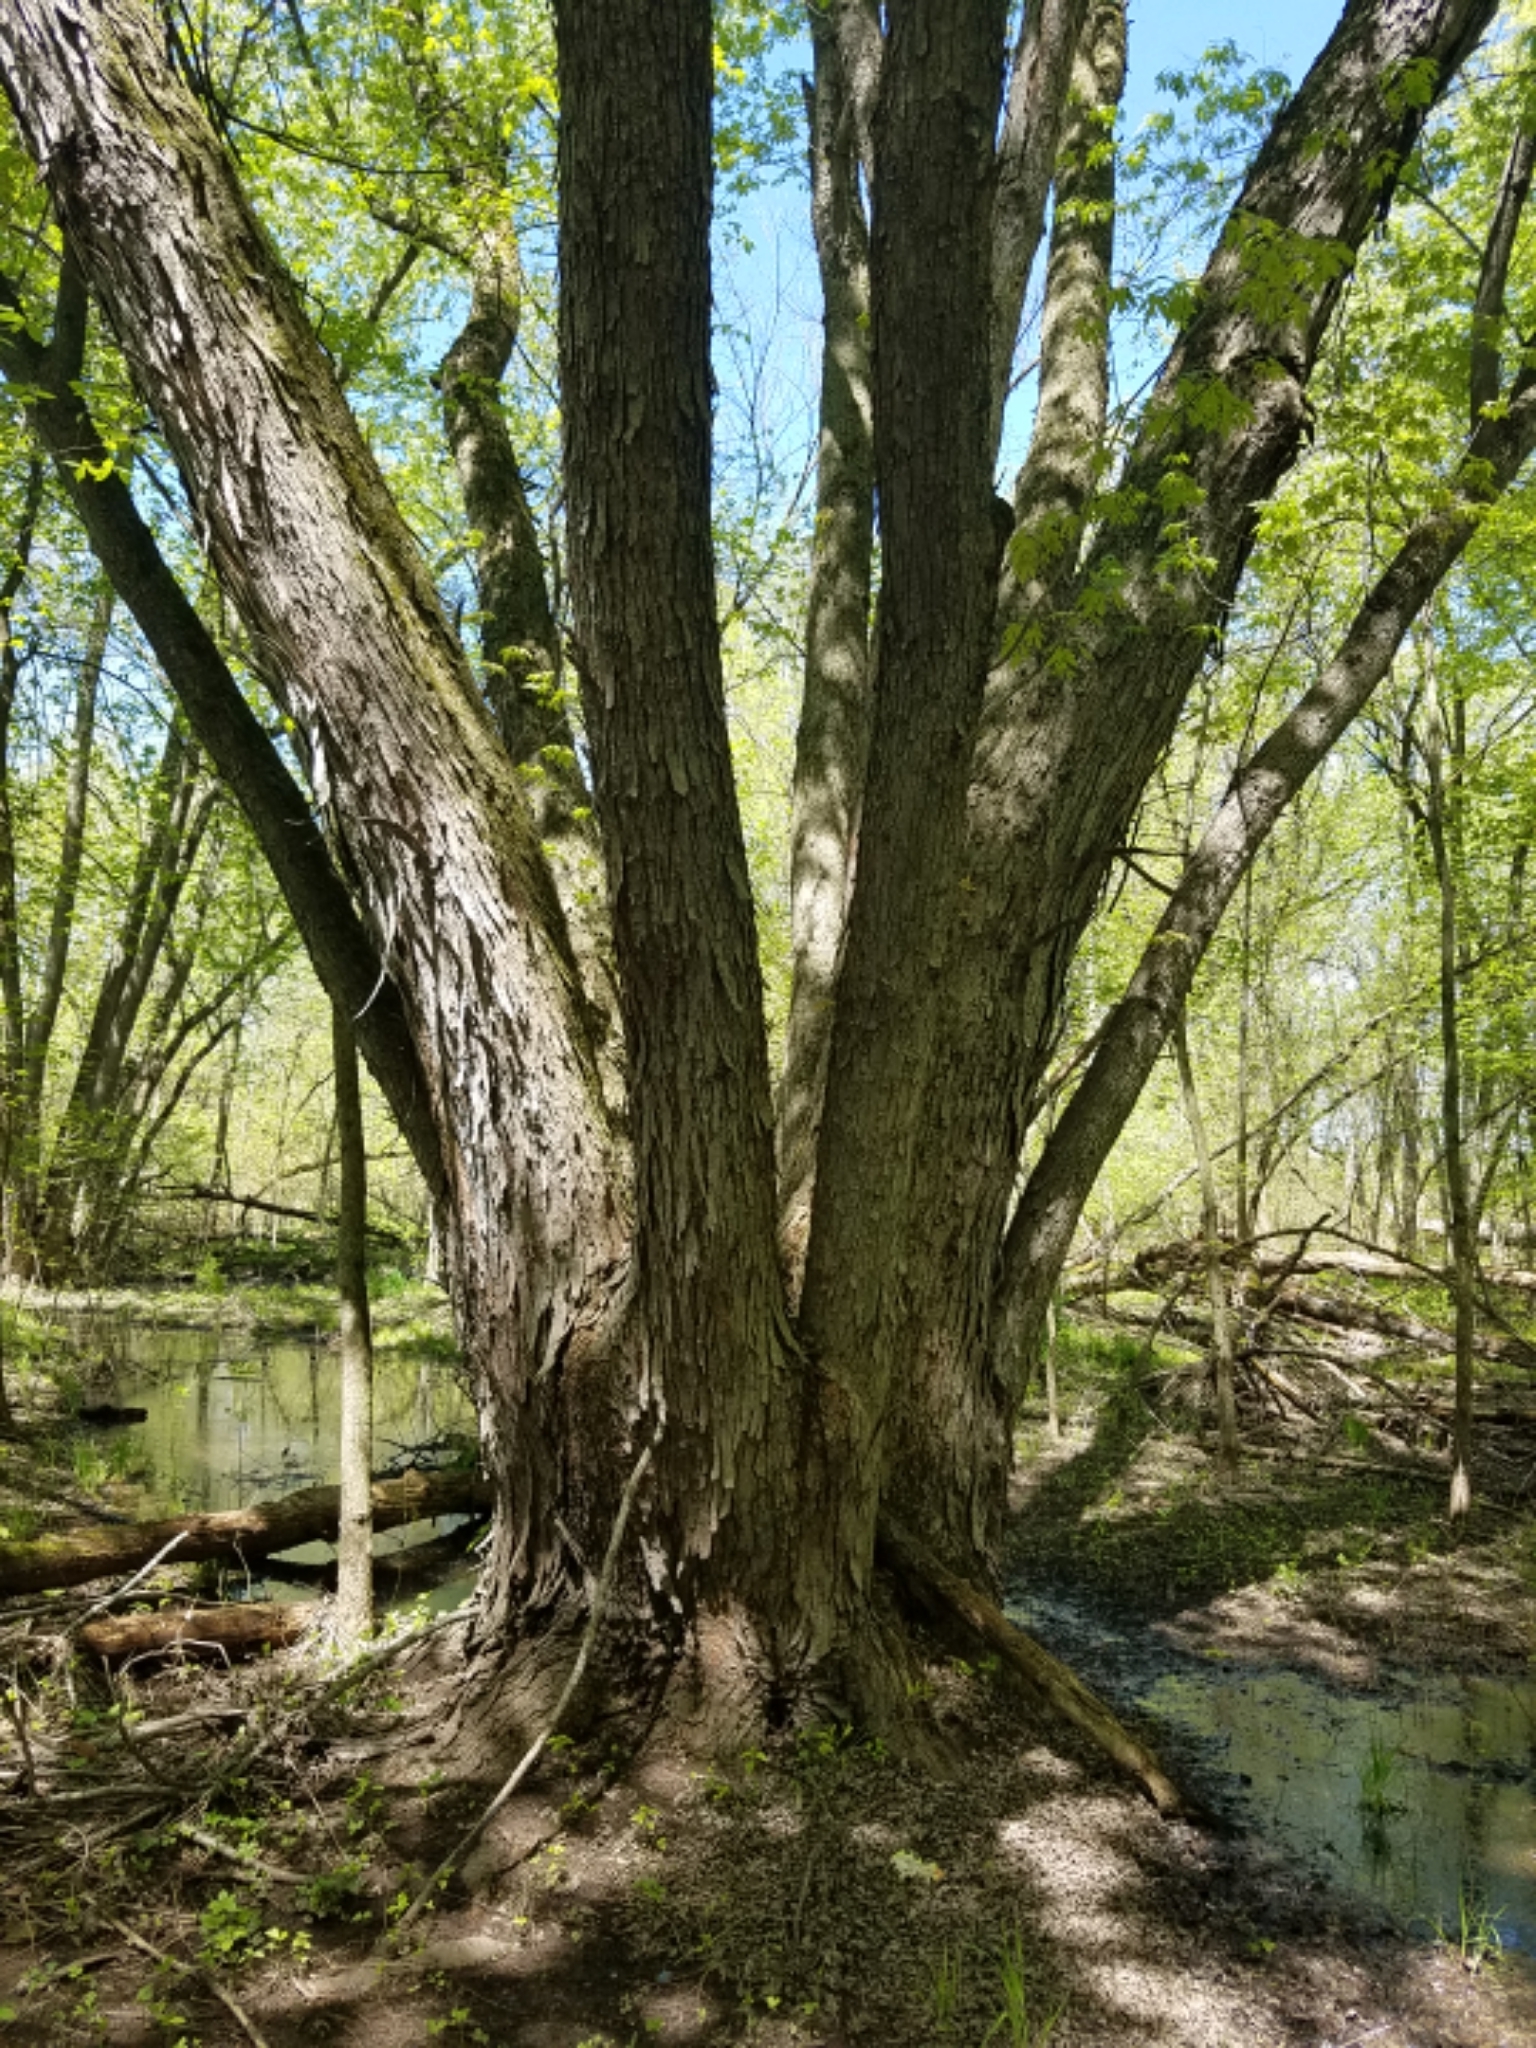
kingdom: Plantae
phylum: Tracheophyta
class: Magnoliopsida
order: Sapindales
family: Sapindaceae
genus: Acer
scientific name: Acer saccharinum
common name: Silver maple
